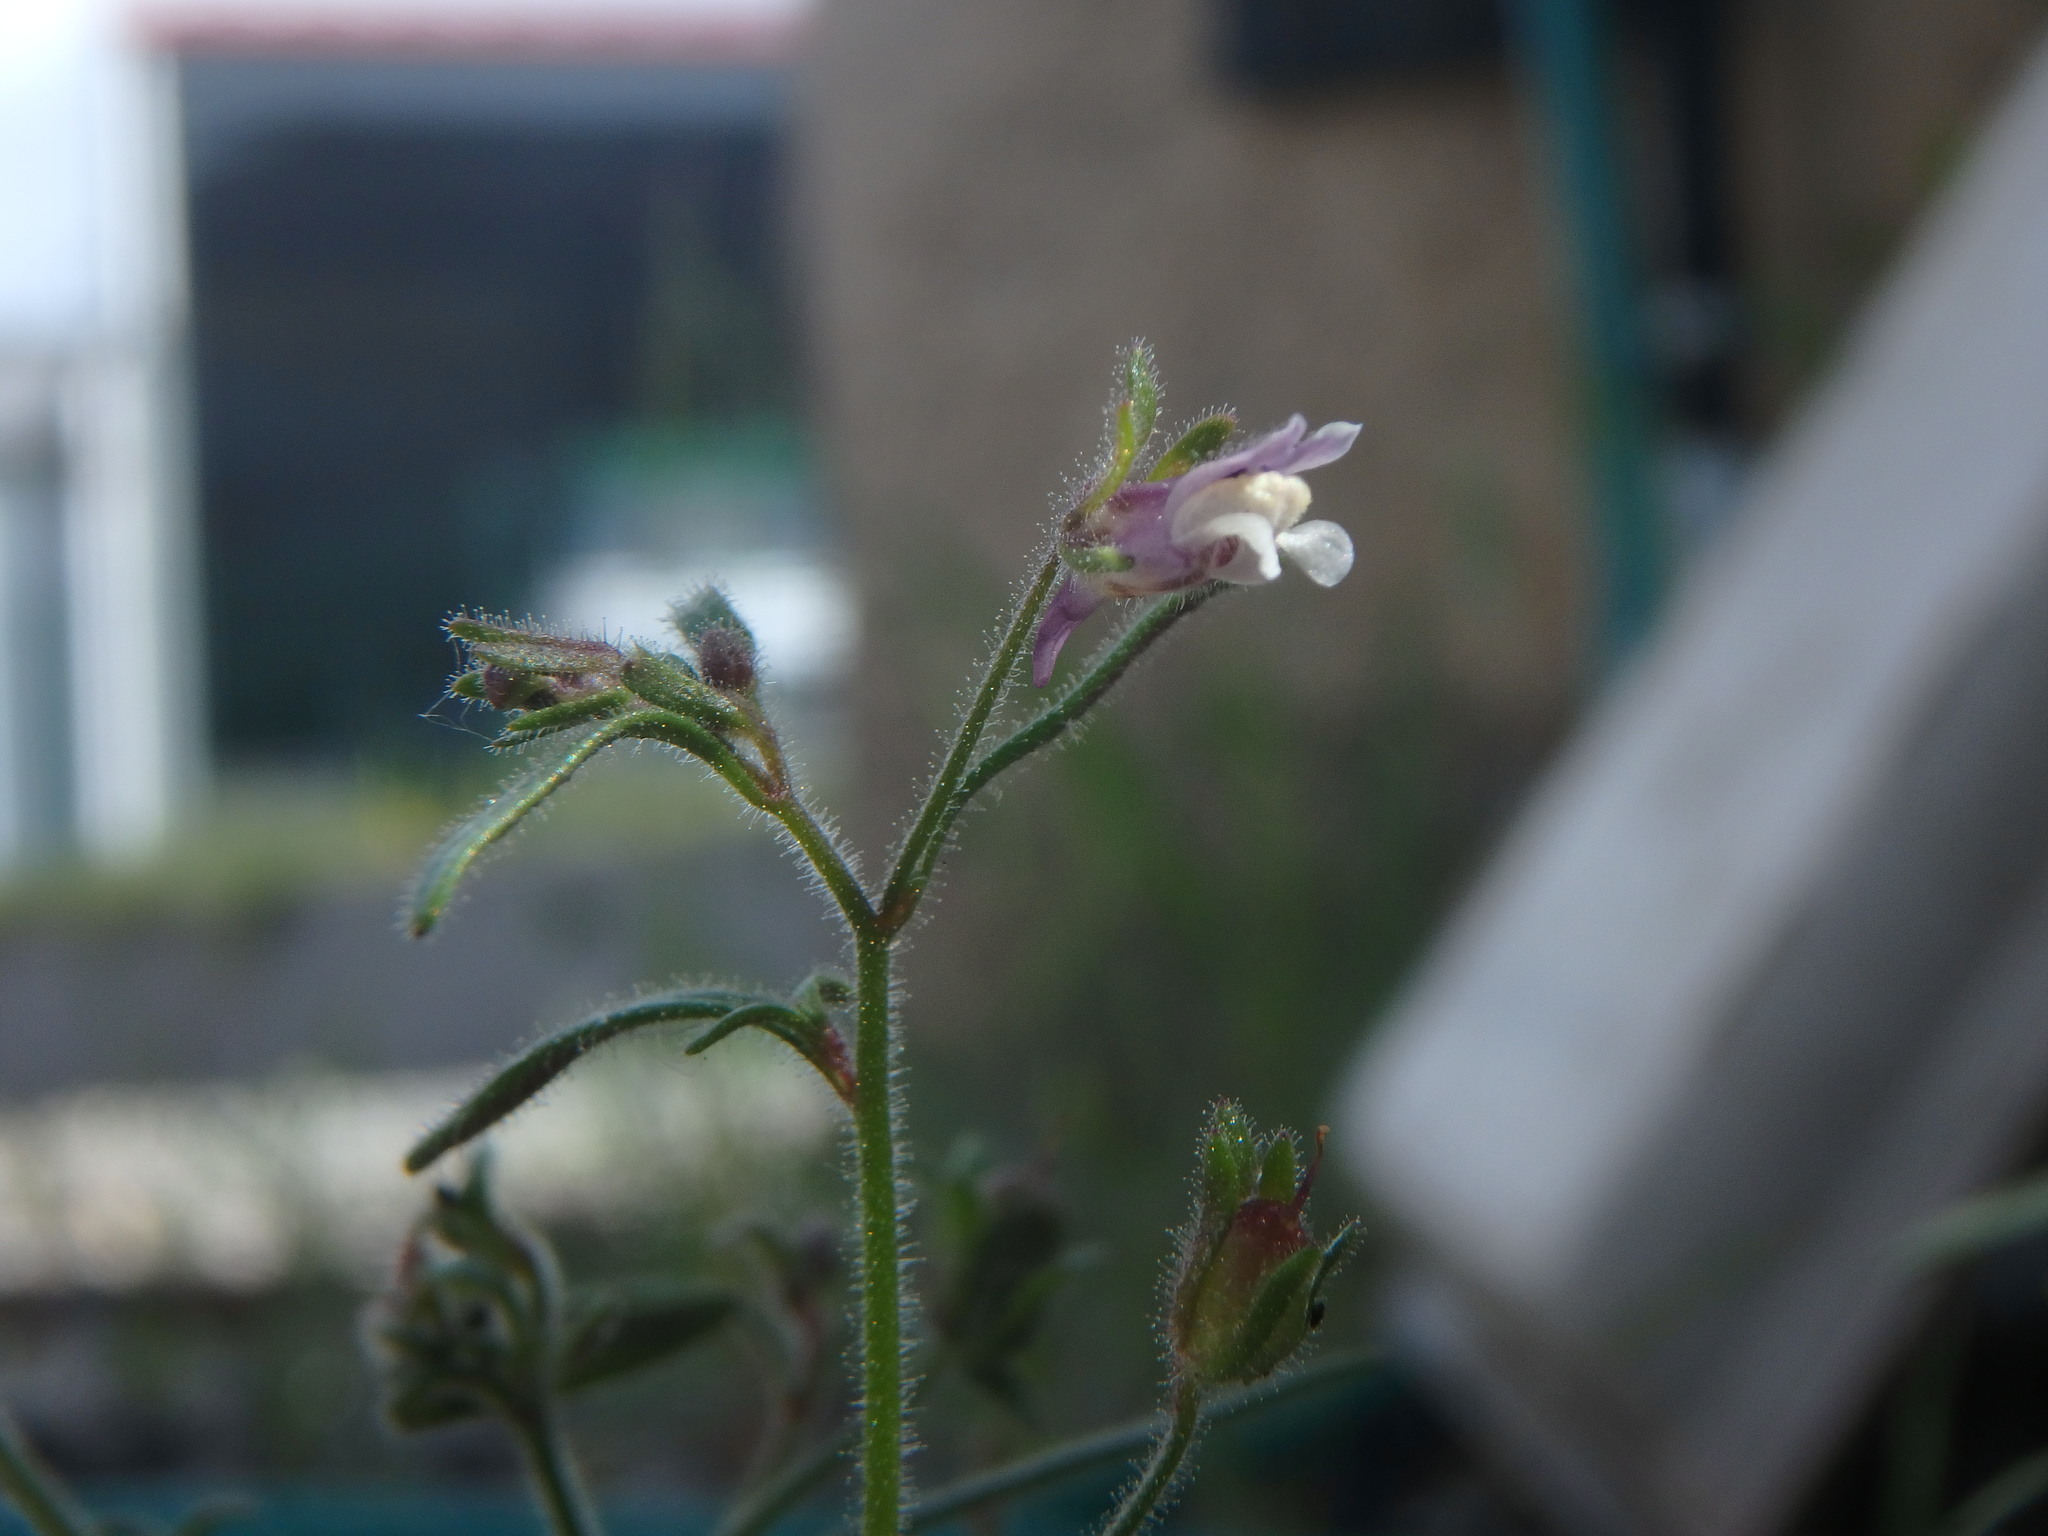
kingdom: Plantae
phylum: Tracheophyta
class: Magnoliopsida
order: Lamiales
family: Plantaginaceae
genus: Chaenorhinum
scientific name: Chaenorhinum minus
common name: Dwarf snapdragon
